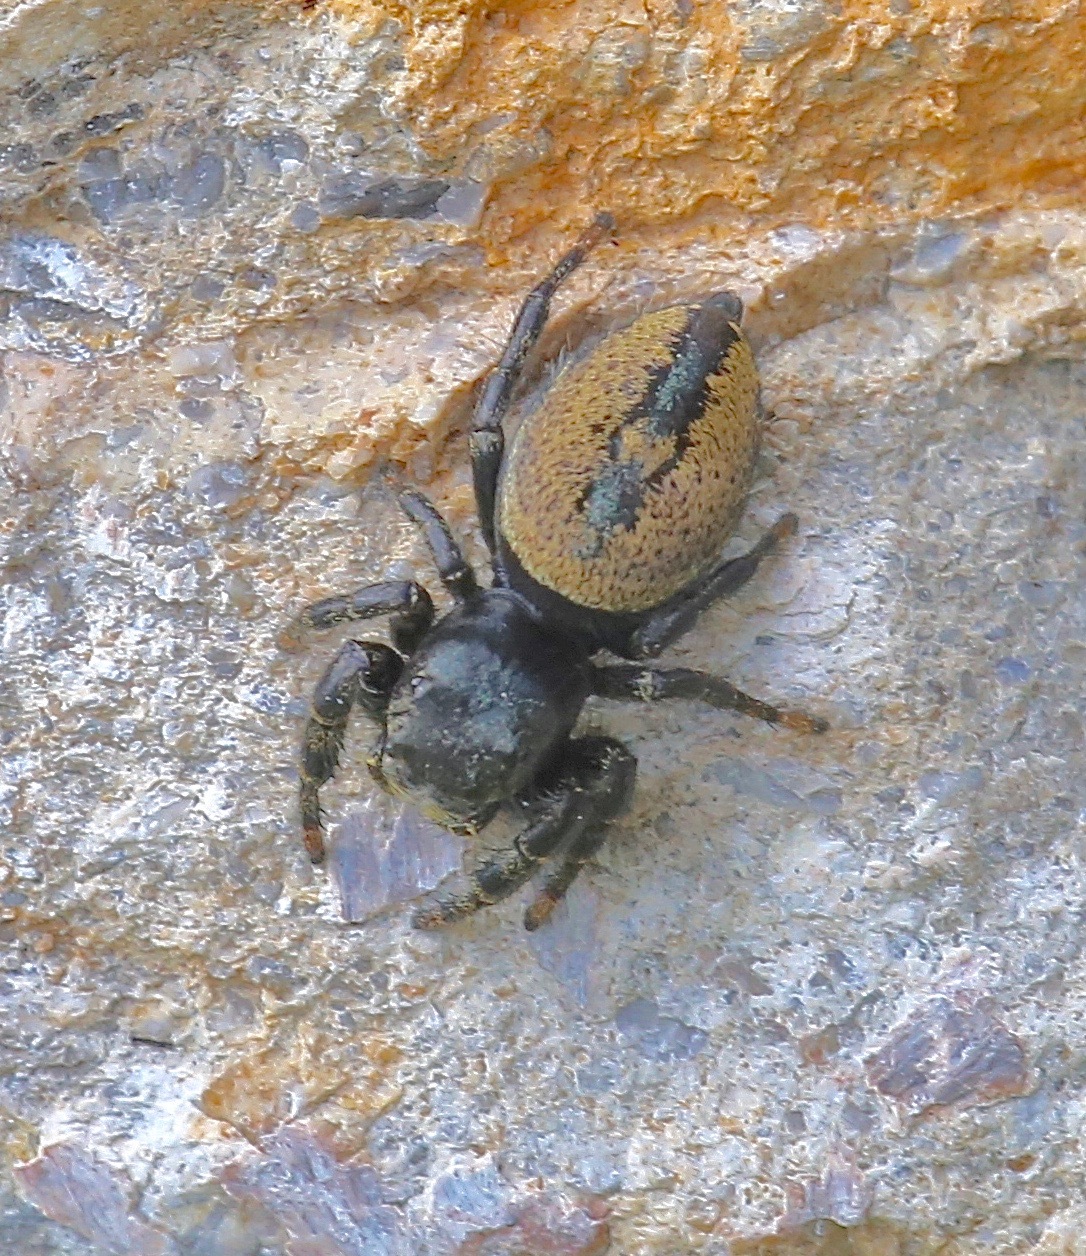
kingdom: Animalia
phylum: Arthropoda
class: Arachnida
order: Araneae
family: Salticidae
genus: Phidippus
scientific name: Phidippus carneus
